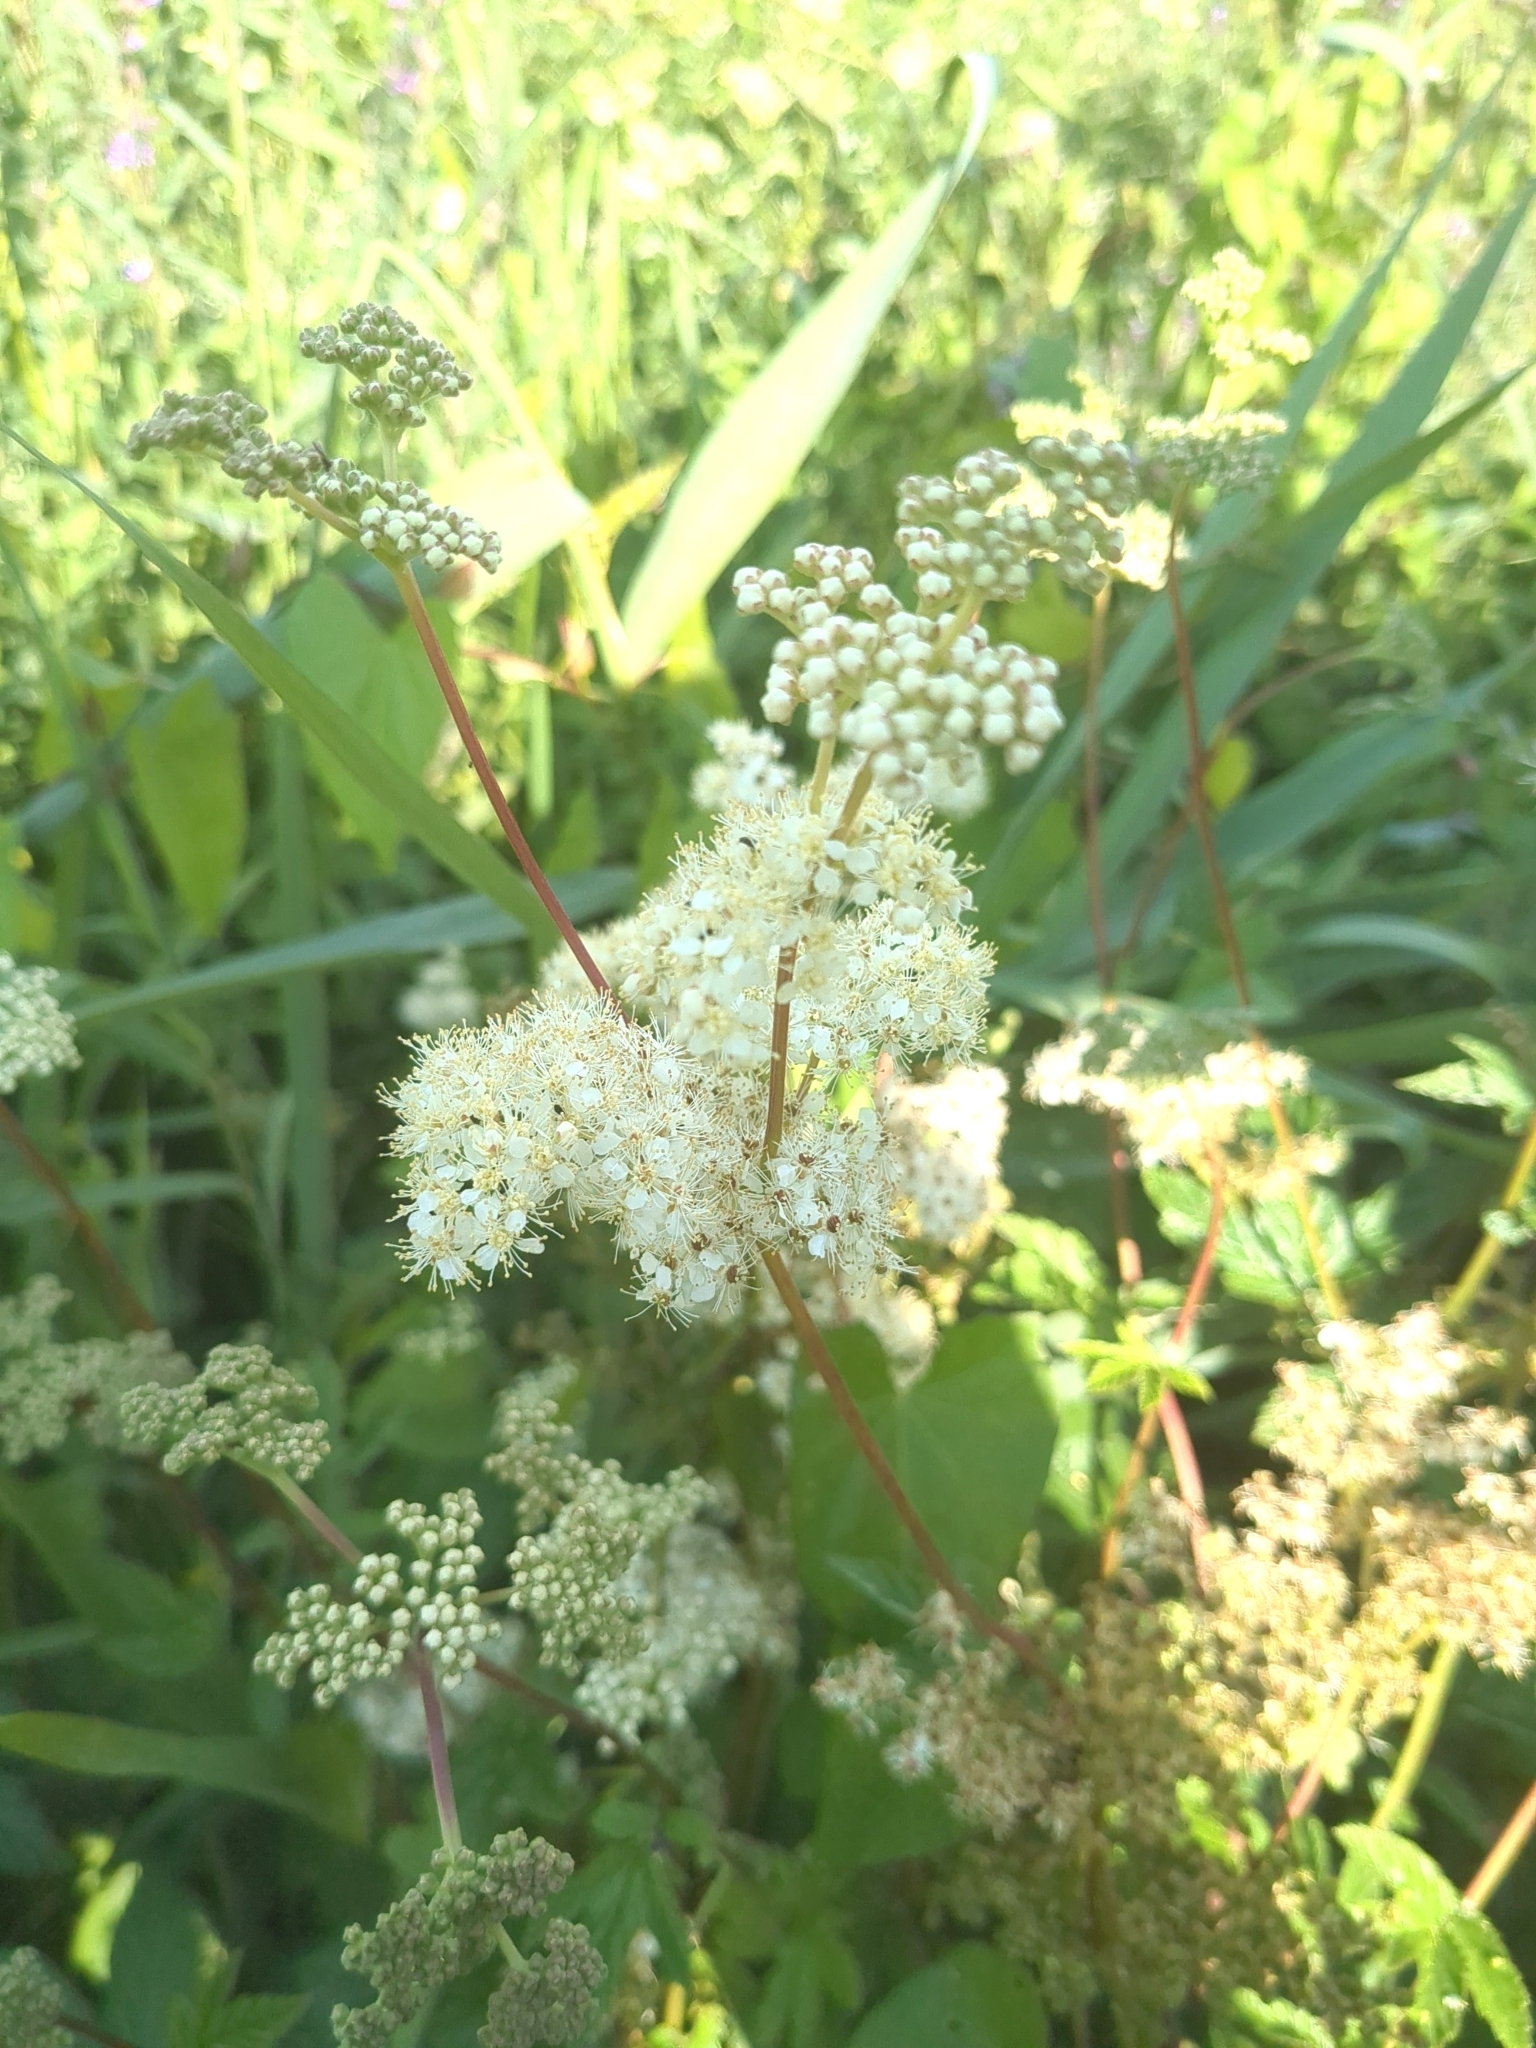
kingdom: Plantae
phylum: Tracheophyta
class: Magnoliopsida
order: Rosales
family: Rosaceae
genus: Filipendula
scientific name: Filipendula ulmaria
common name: Meadowsweet
